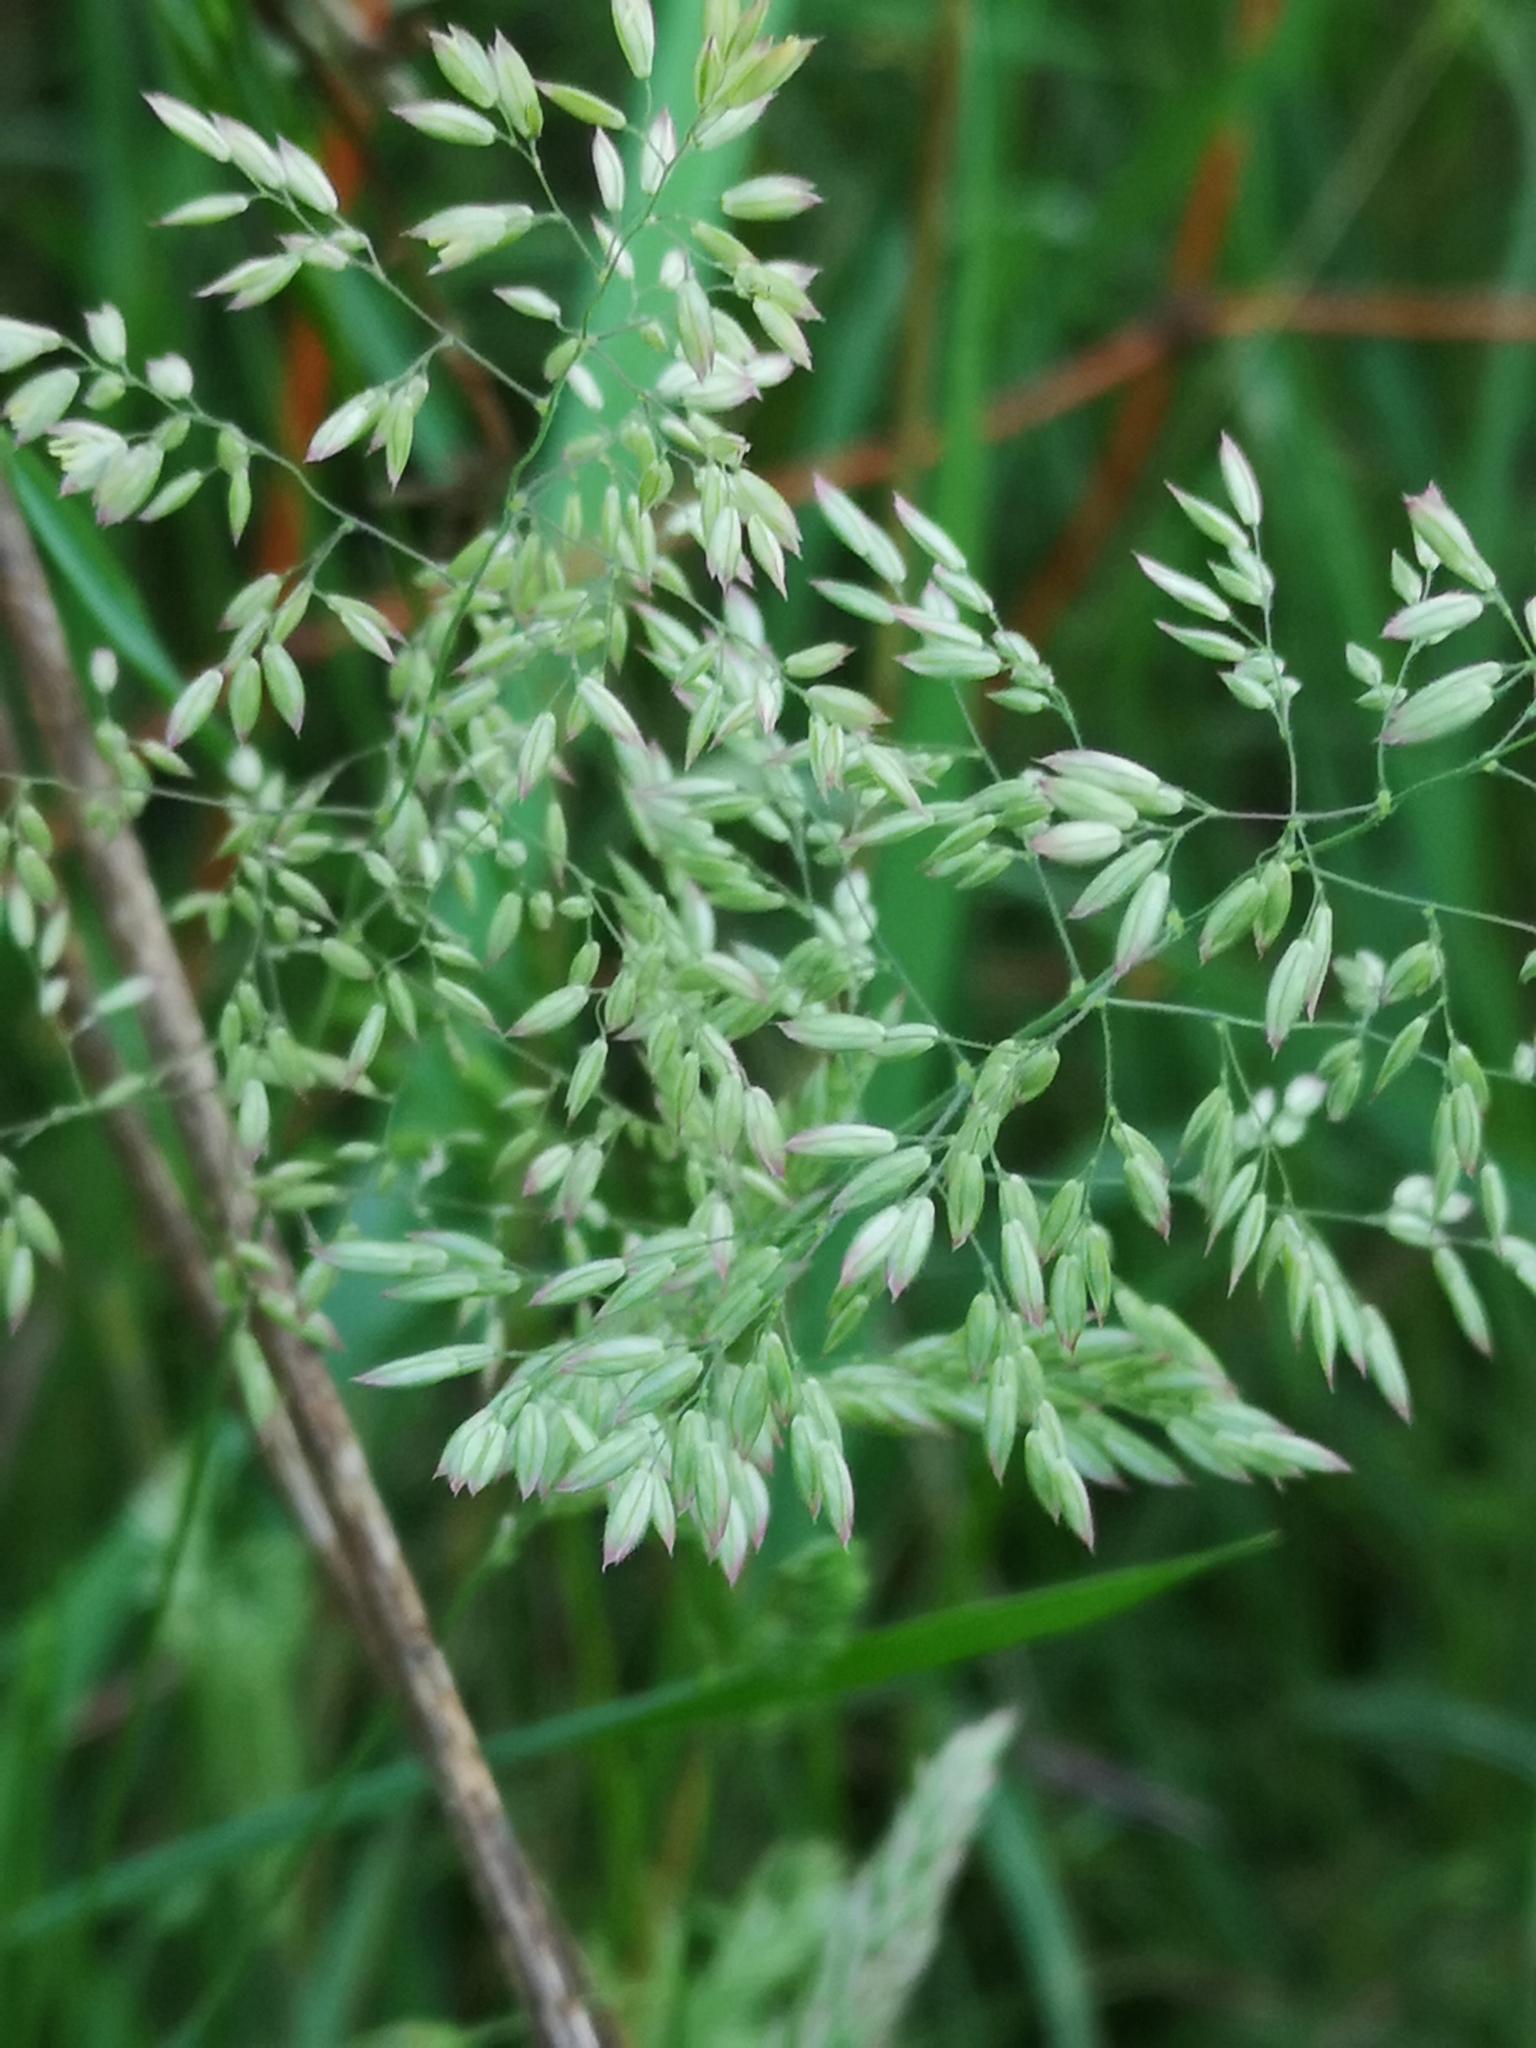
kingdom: Plantae
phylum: Tracheophyta
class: Liliopsida
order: Poales
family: Poaceae
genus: Holcus
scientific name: Holcus lanatus
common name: Yorkshire-fog
